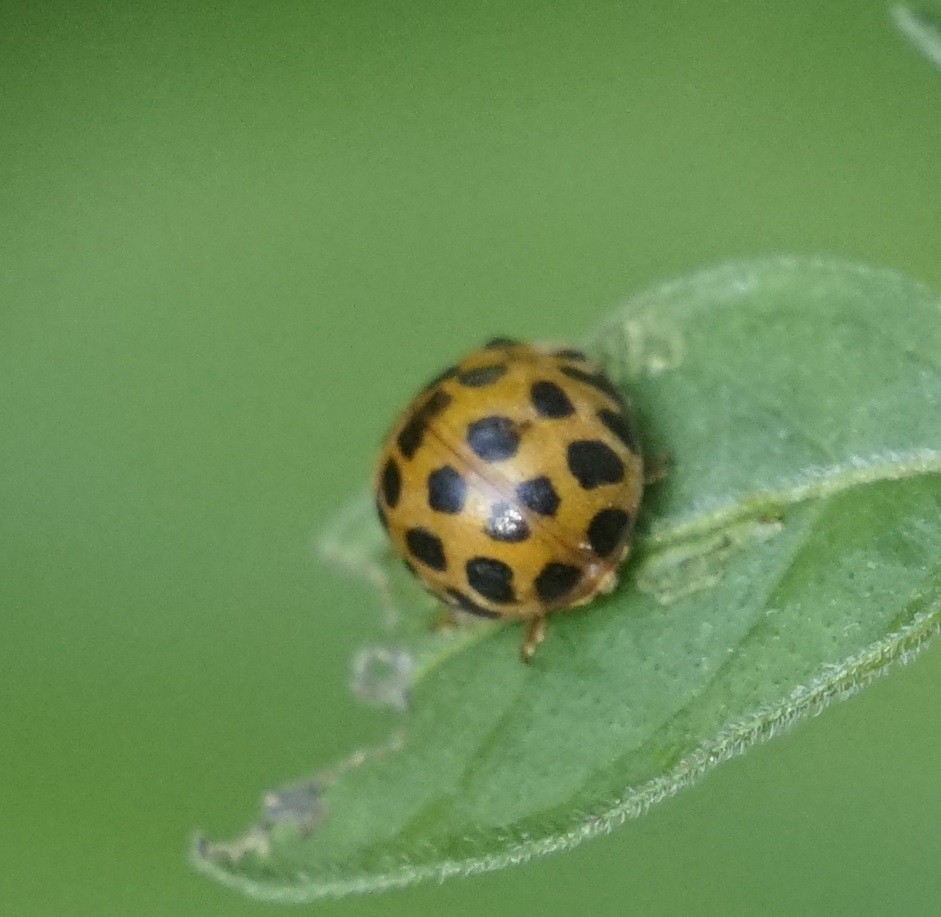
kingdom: Animalia
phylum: Arthropoda
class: Insecta
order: Coleoptera
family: Coccinellidae
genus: Henosepilachna
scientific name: Henosepilachna vigintioctopunctata
